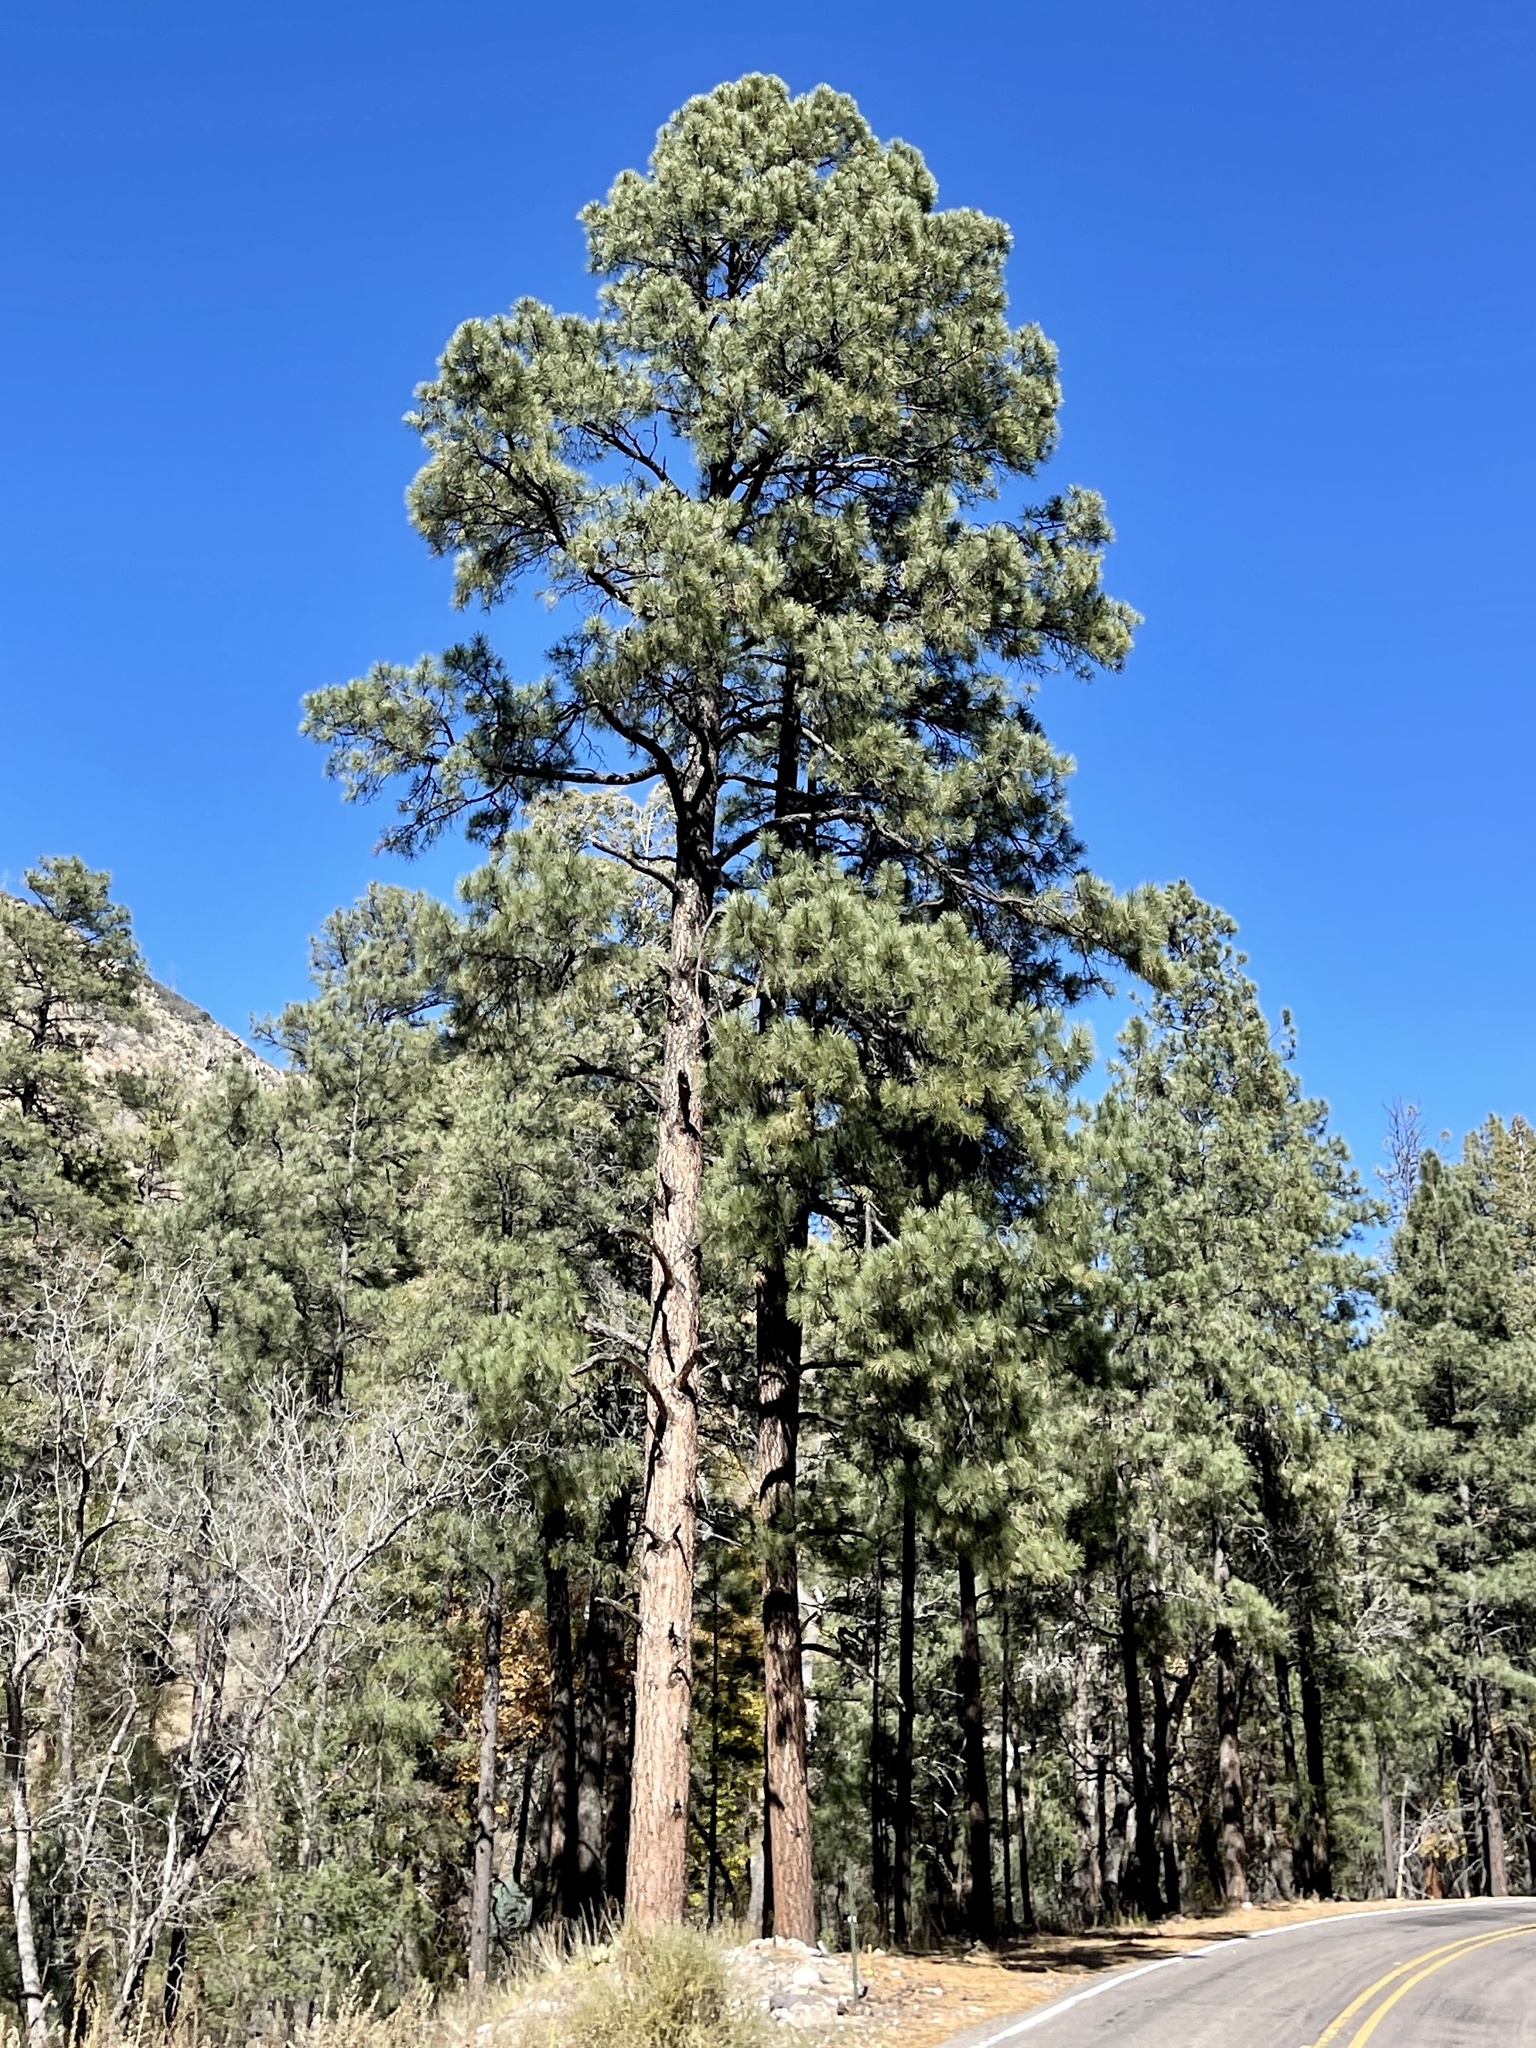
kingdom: Plantae
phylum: Tracheophyta
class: Pinopsida
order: Pinales
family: Pinaceae
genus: Pinus
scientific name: Pinus ponderosa
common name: Western yellow-pine
